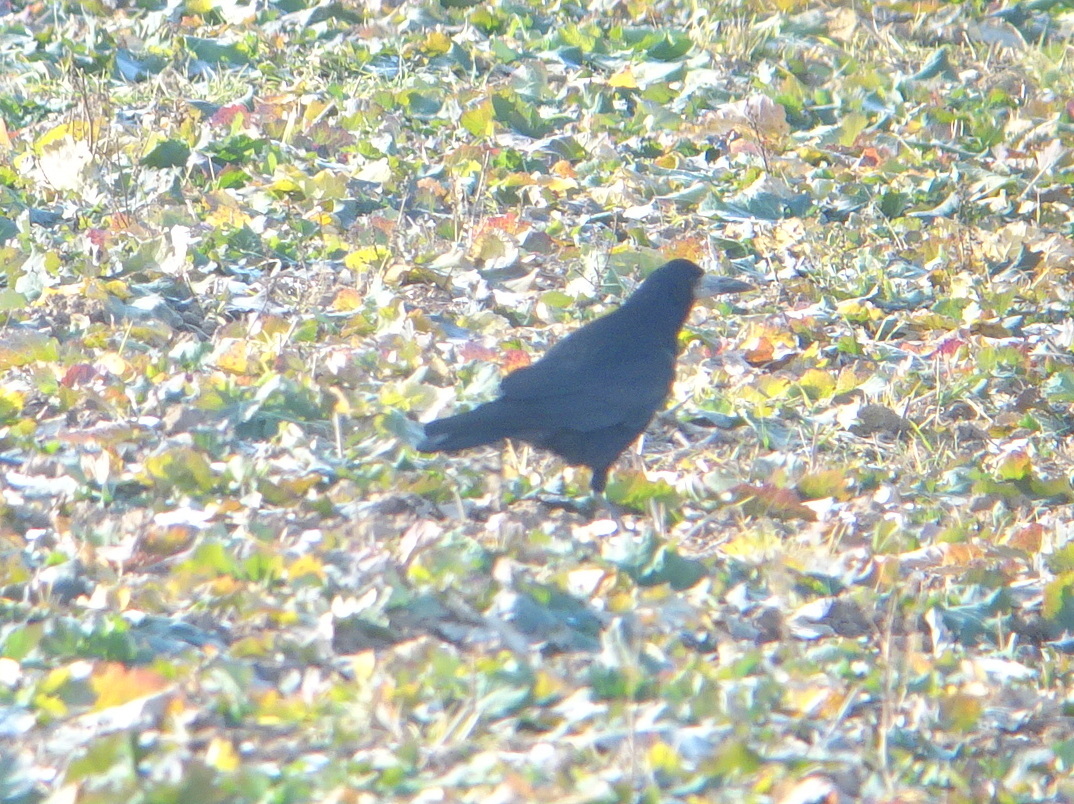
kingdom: Animalia
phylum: Chordata
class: Aves
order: Passeriformes
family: Corvidae
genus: Corvus
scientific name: Corvus frugilegus
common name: Rook
